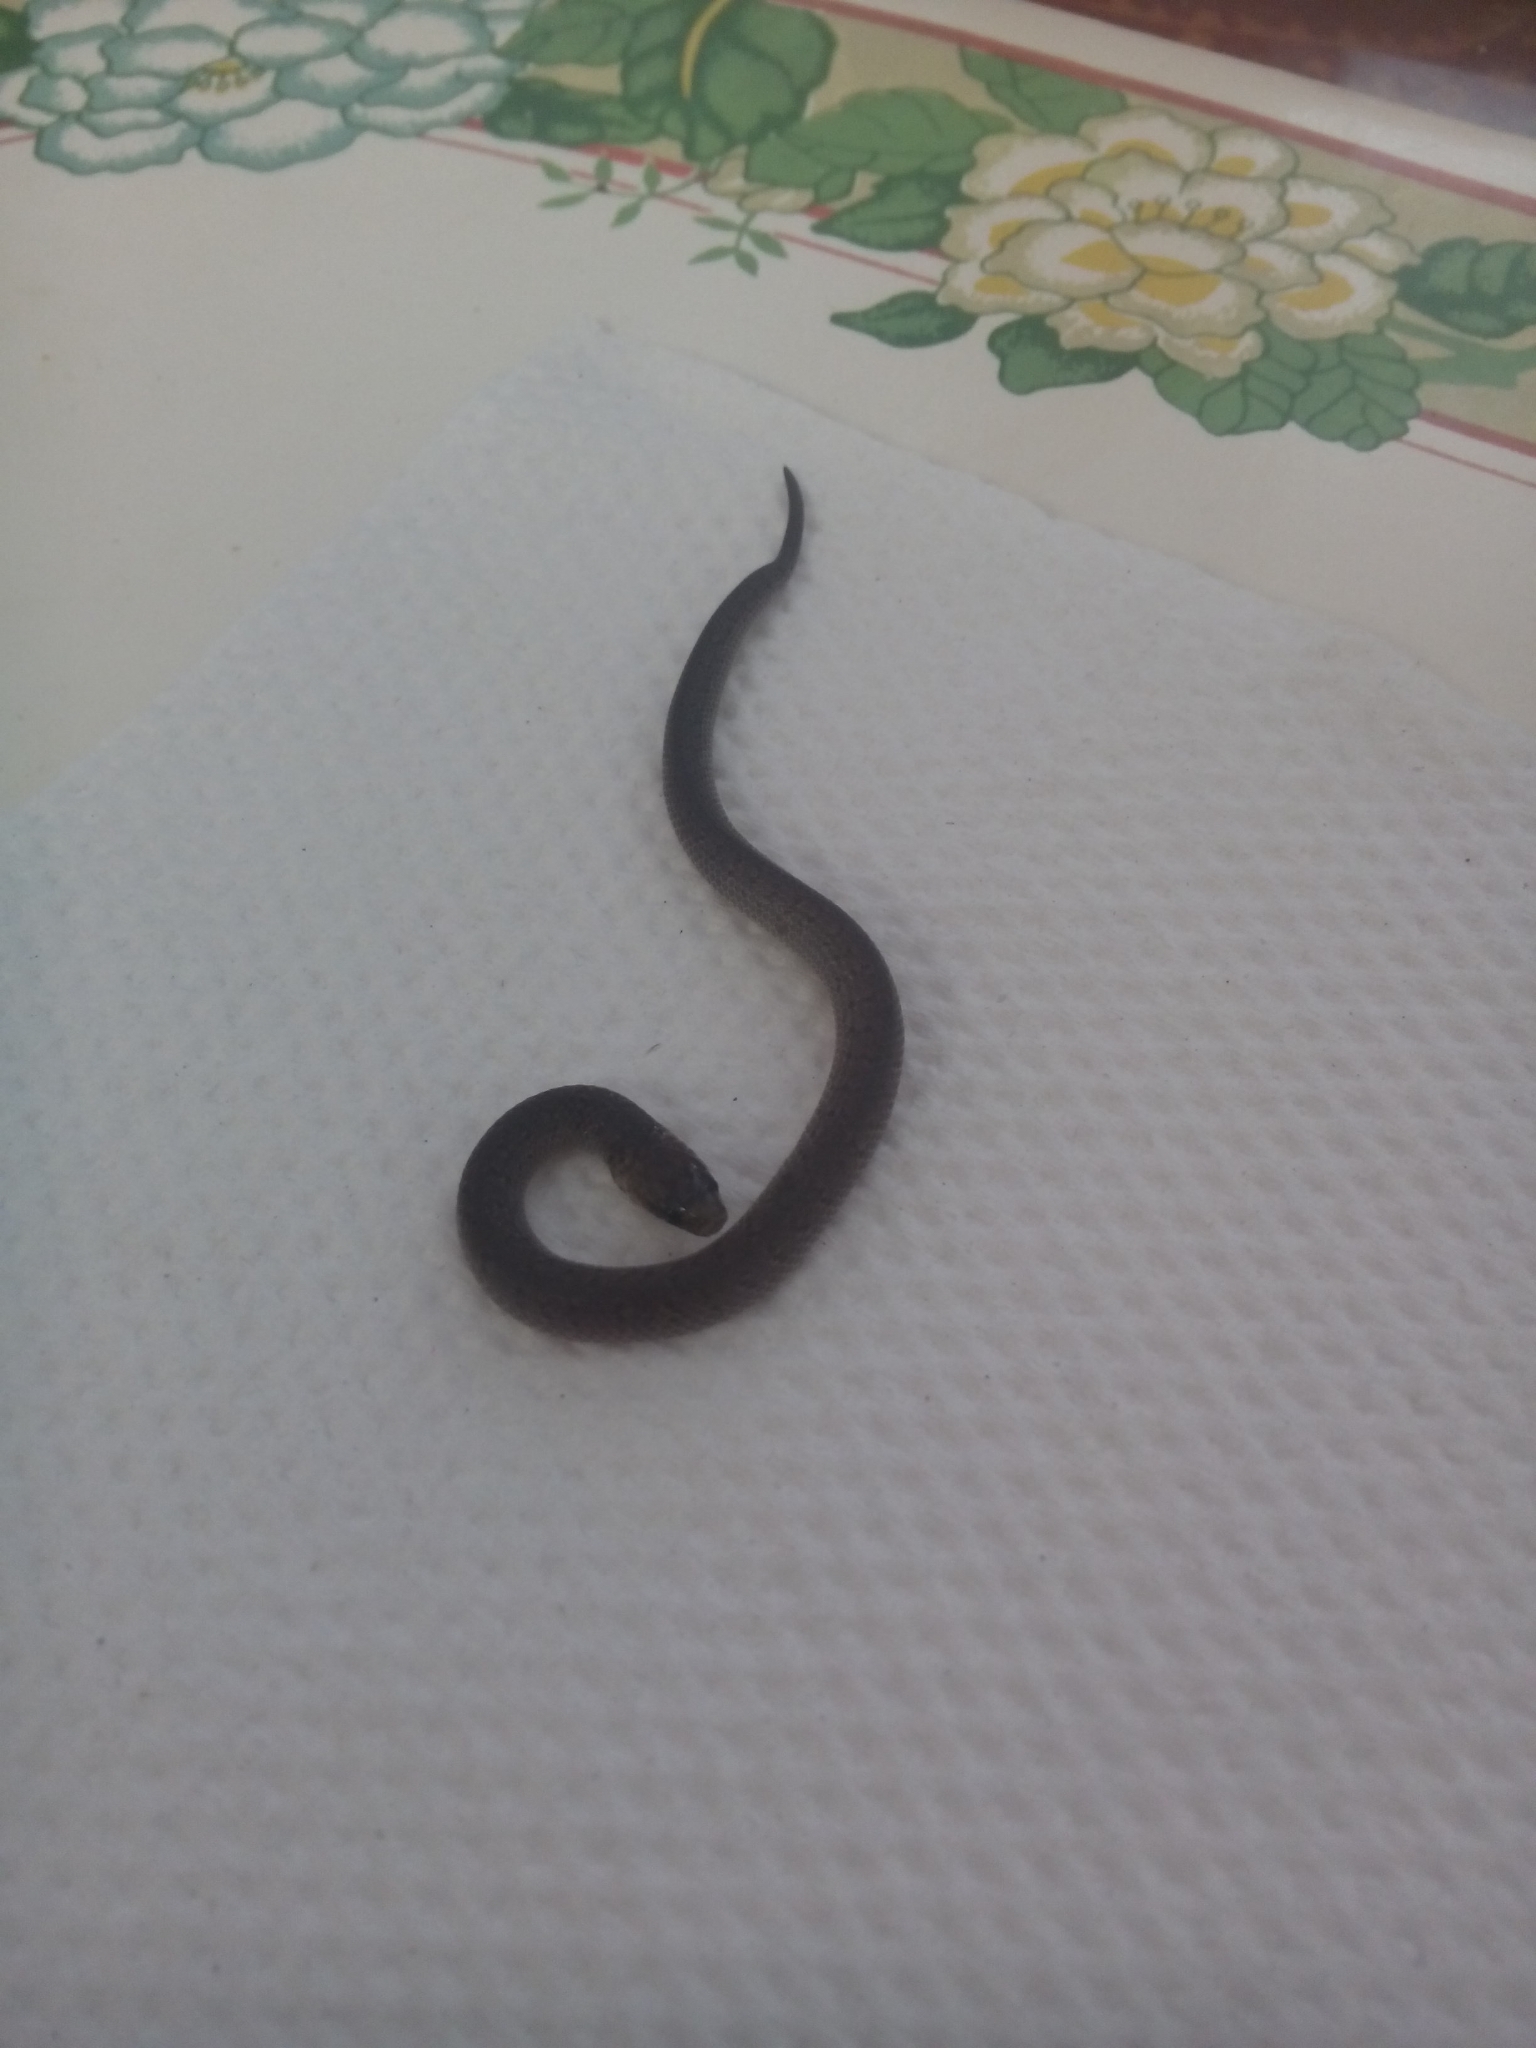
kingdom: Animalia
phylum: Chordata
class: Squamata
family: Colubridae
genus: Atractus
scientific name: Atractus nicefori
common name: Northern ground snake
